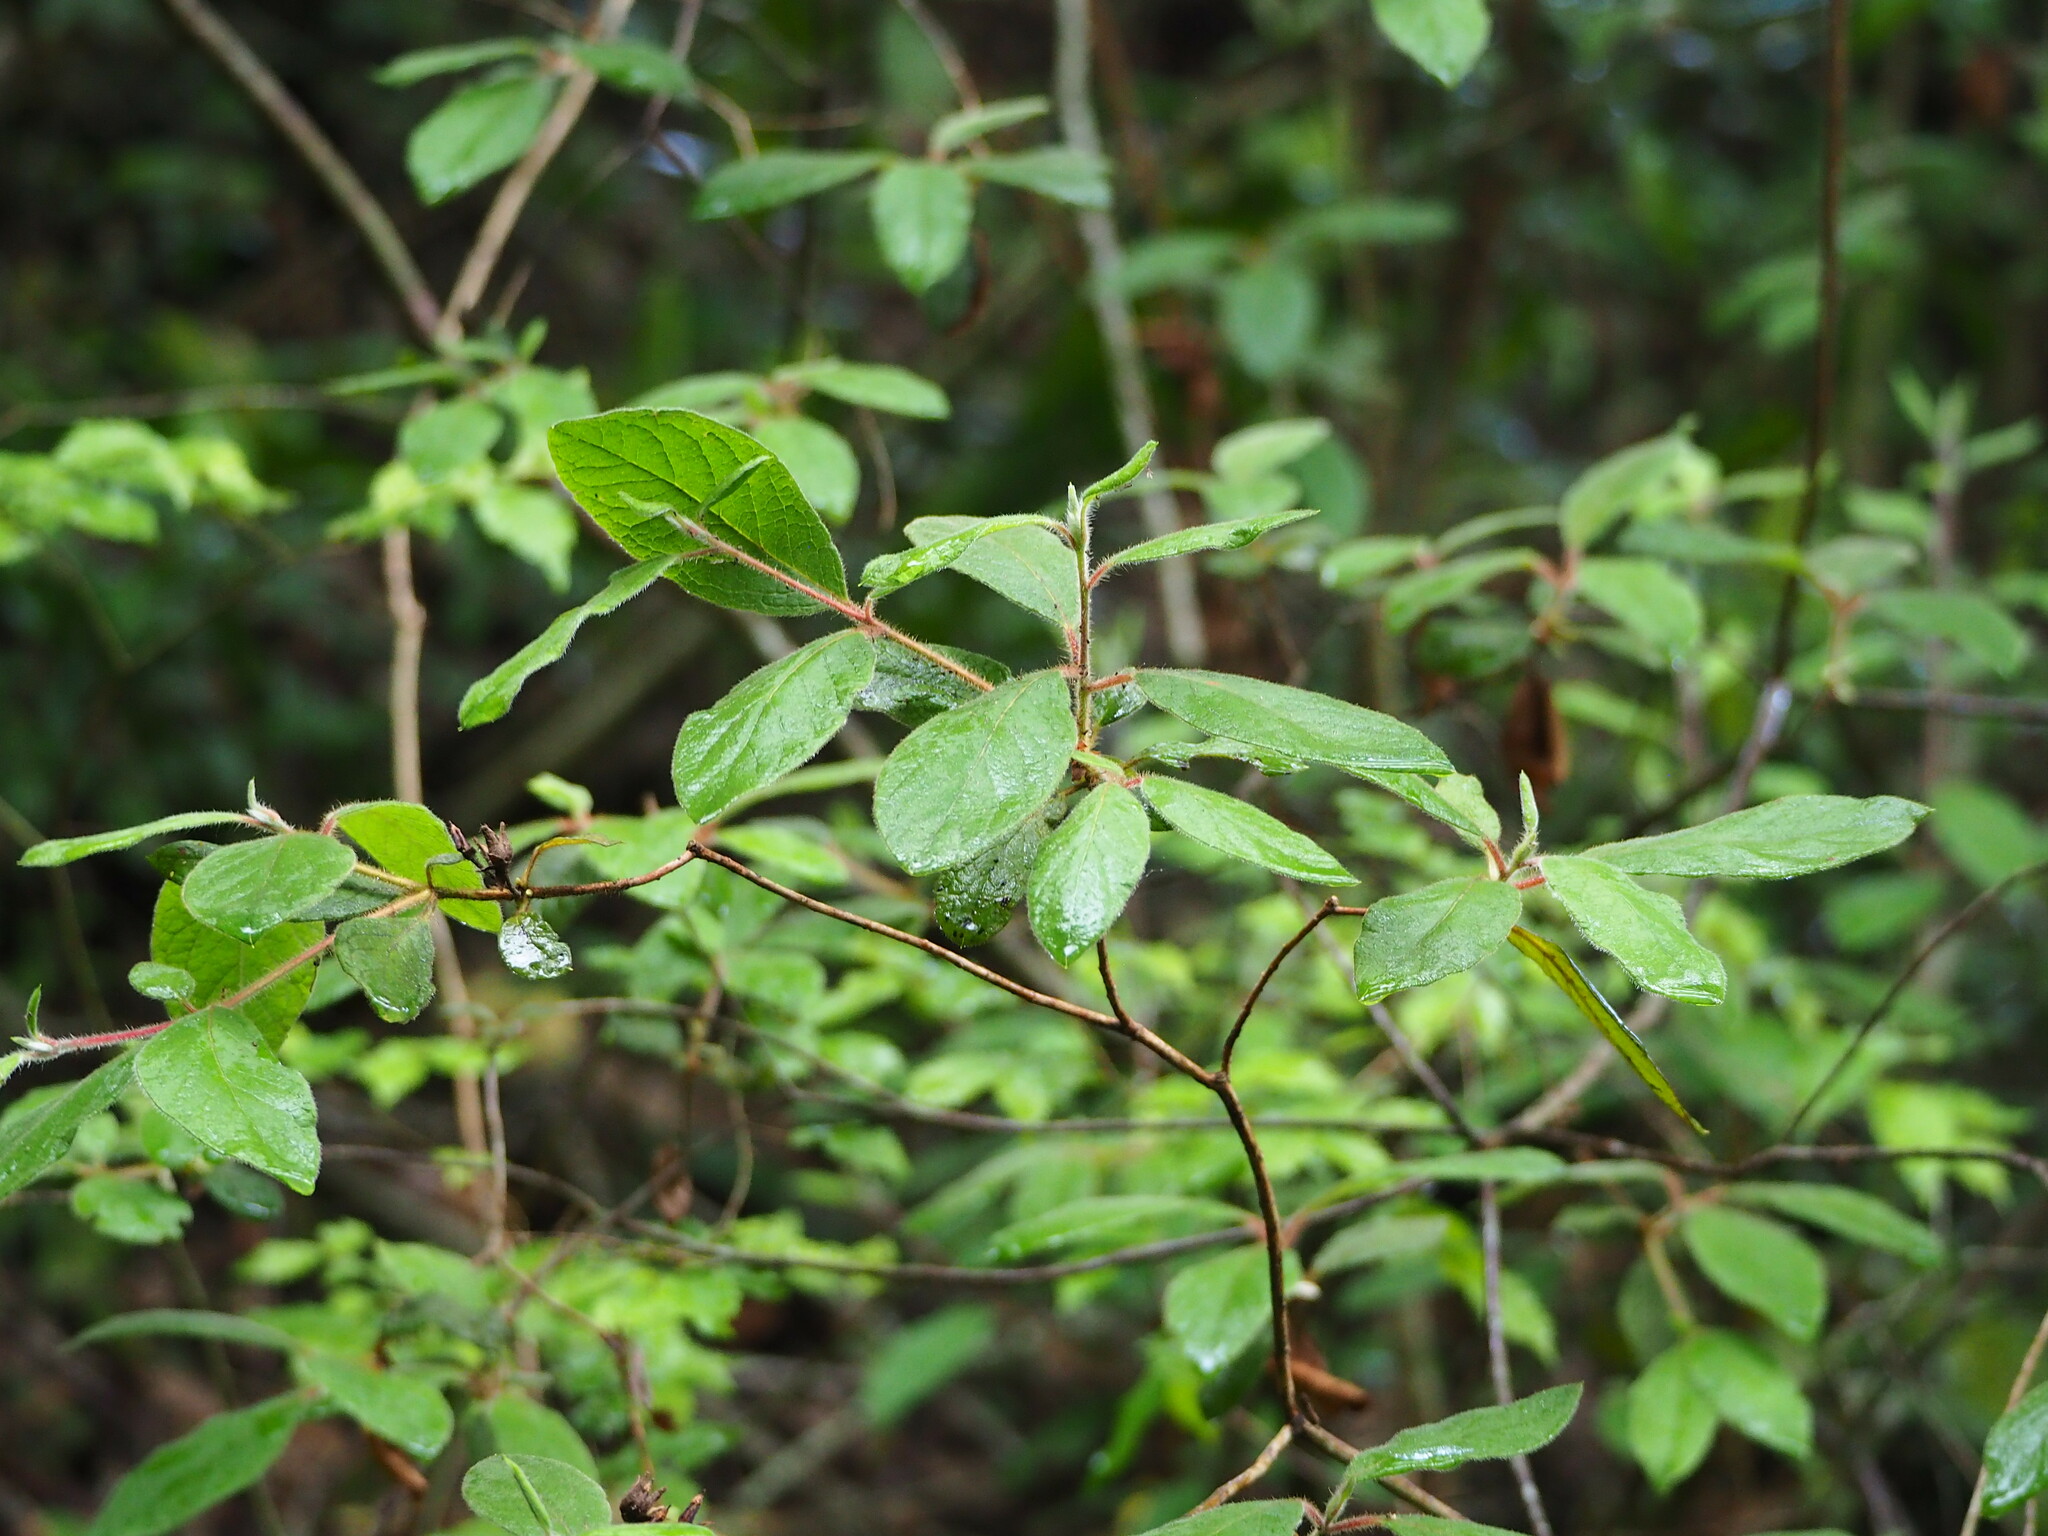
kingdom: Plantae
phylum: Tracheophyta
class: Magnoliopsida
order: Ericales
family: Ericaceae
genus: Rhododendron
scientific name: Rhododendron oldhamii
